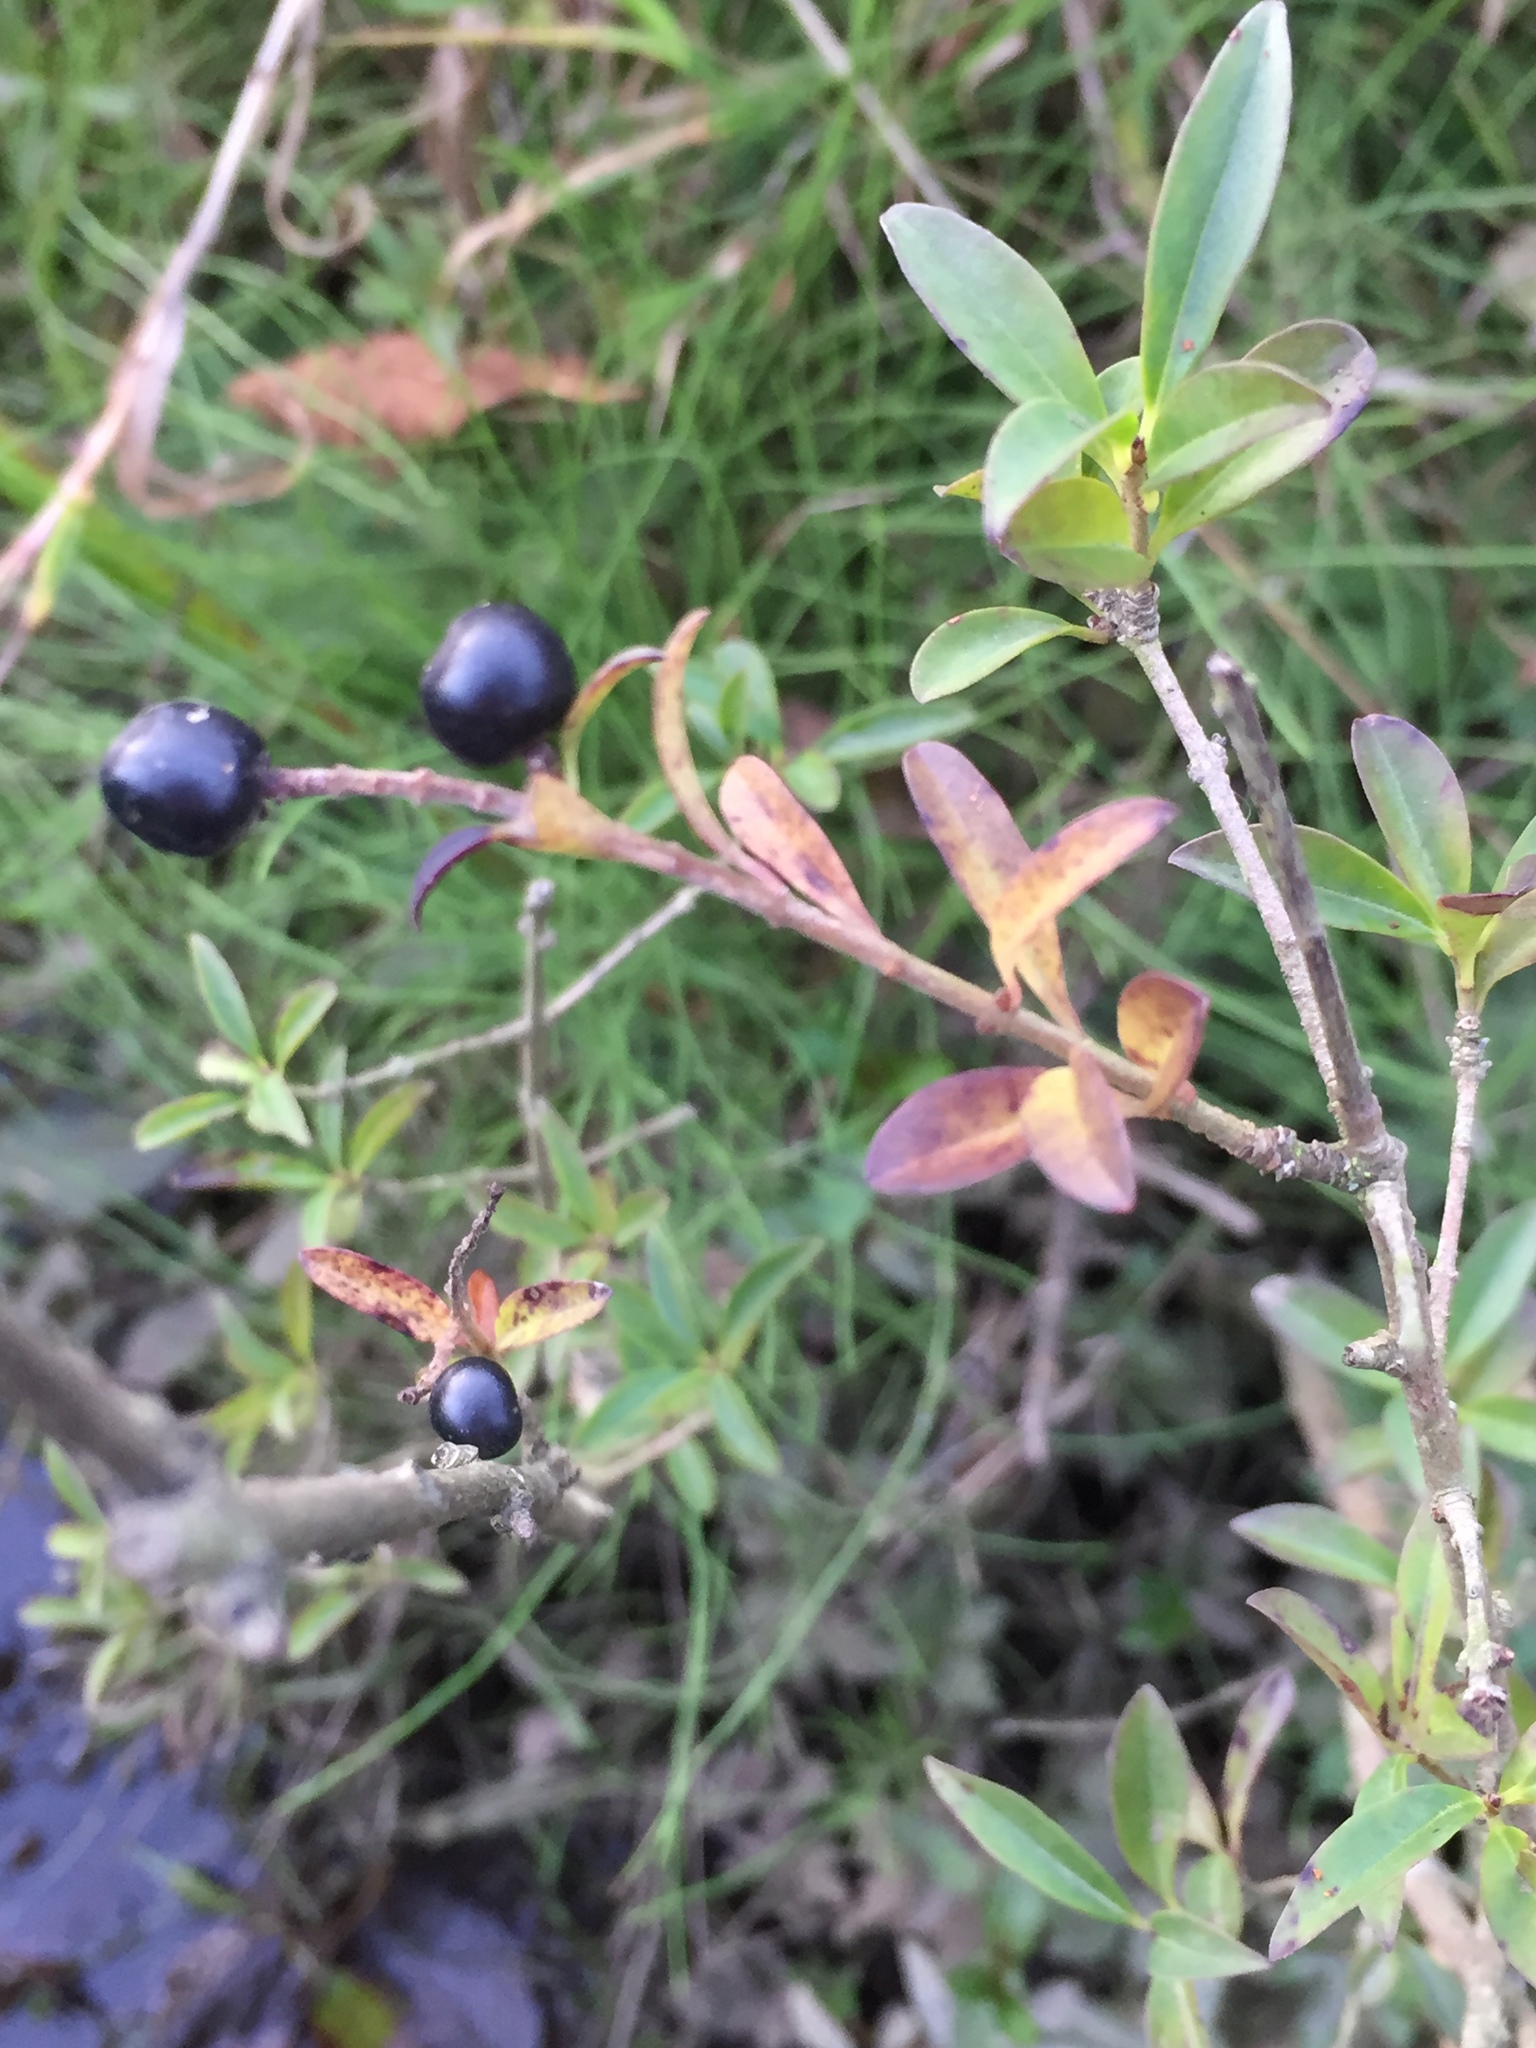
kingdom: Plantae
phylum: Tracheophyta
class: Magnoliopsida
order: Lamiales
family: Oleaceae
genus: Ligustrum
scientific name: Ligustrum vulgare
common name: Wild privet
